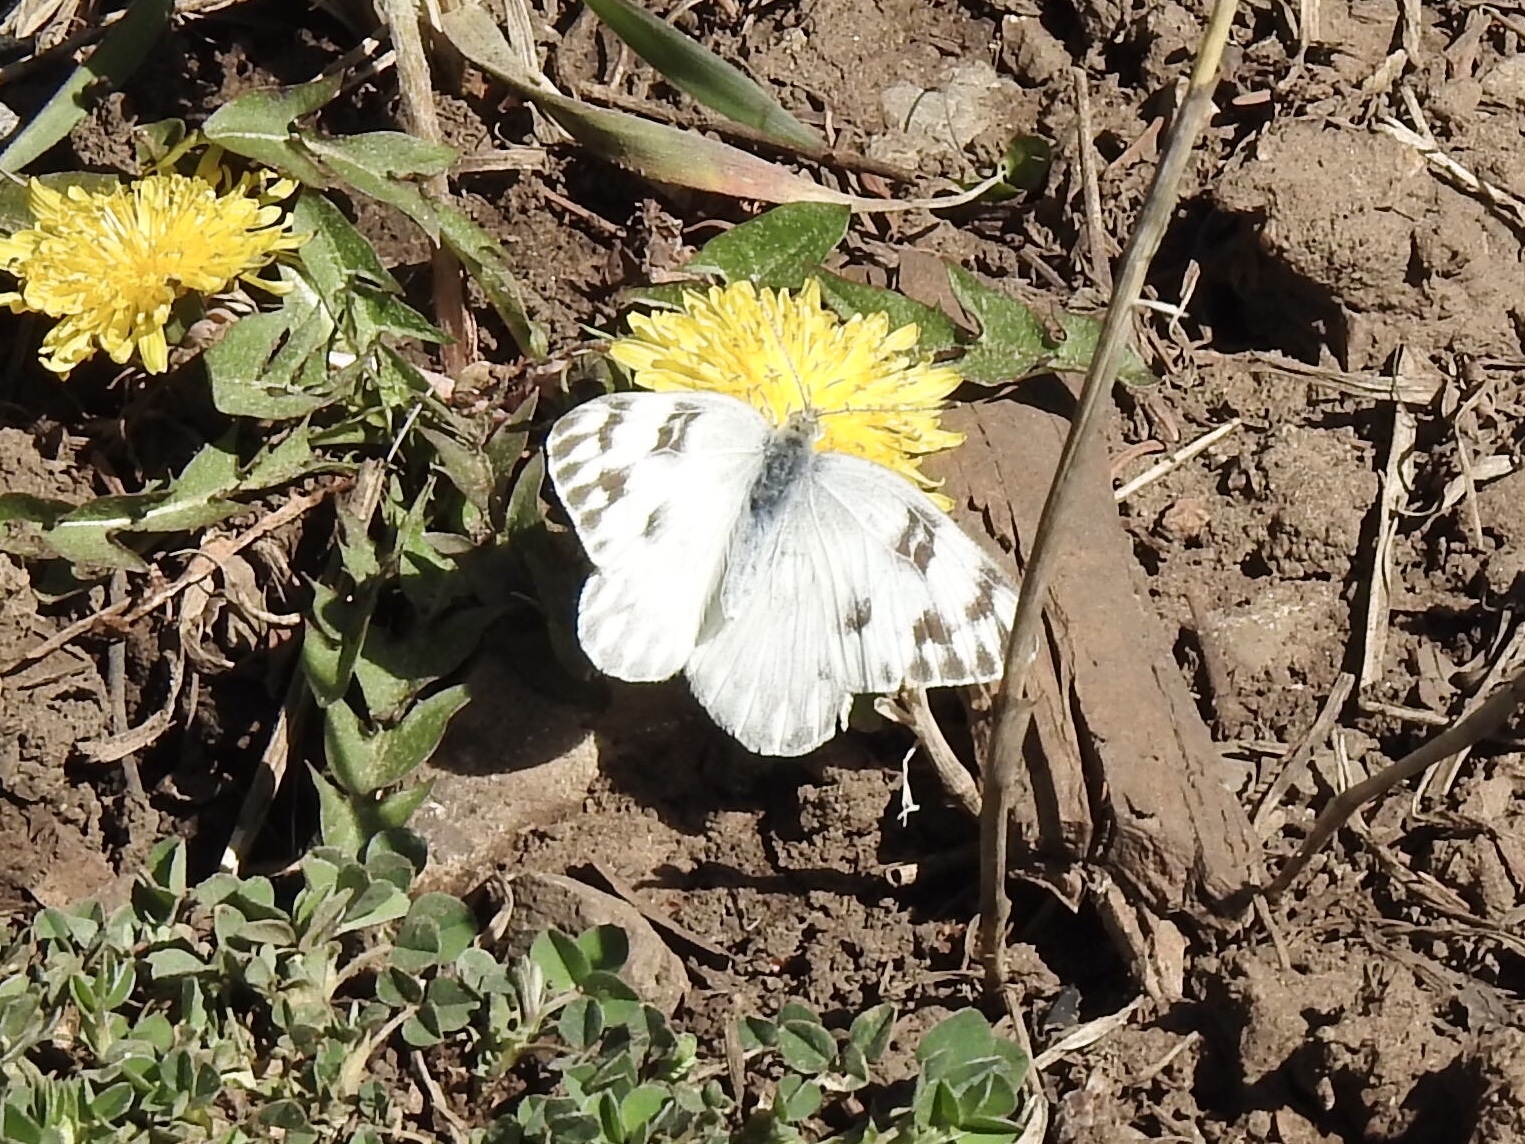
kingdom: Animalia
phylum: Arthropoda
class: Insecta
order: Lepidoptera
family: Pieridae
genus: Pontia
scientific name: Pontia protodice
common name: Checkered white
